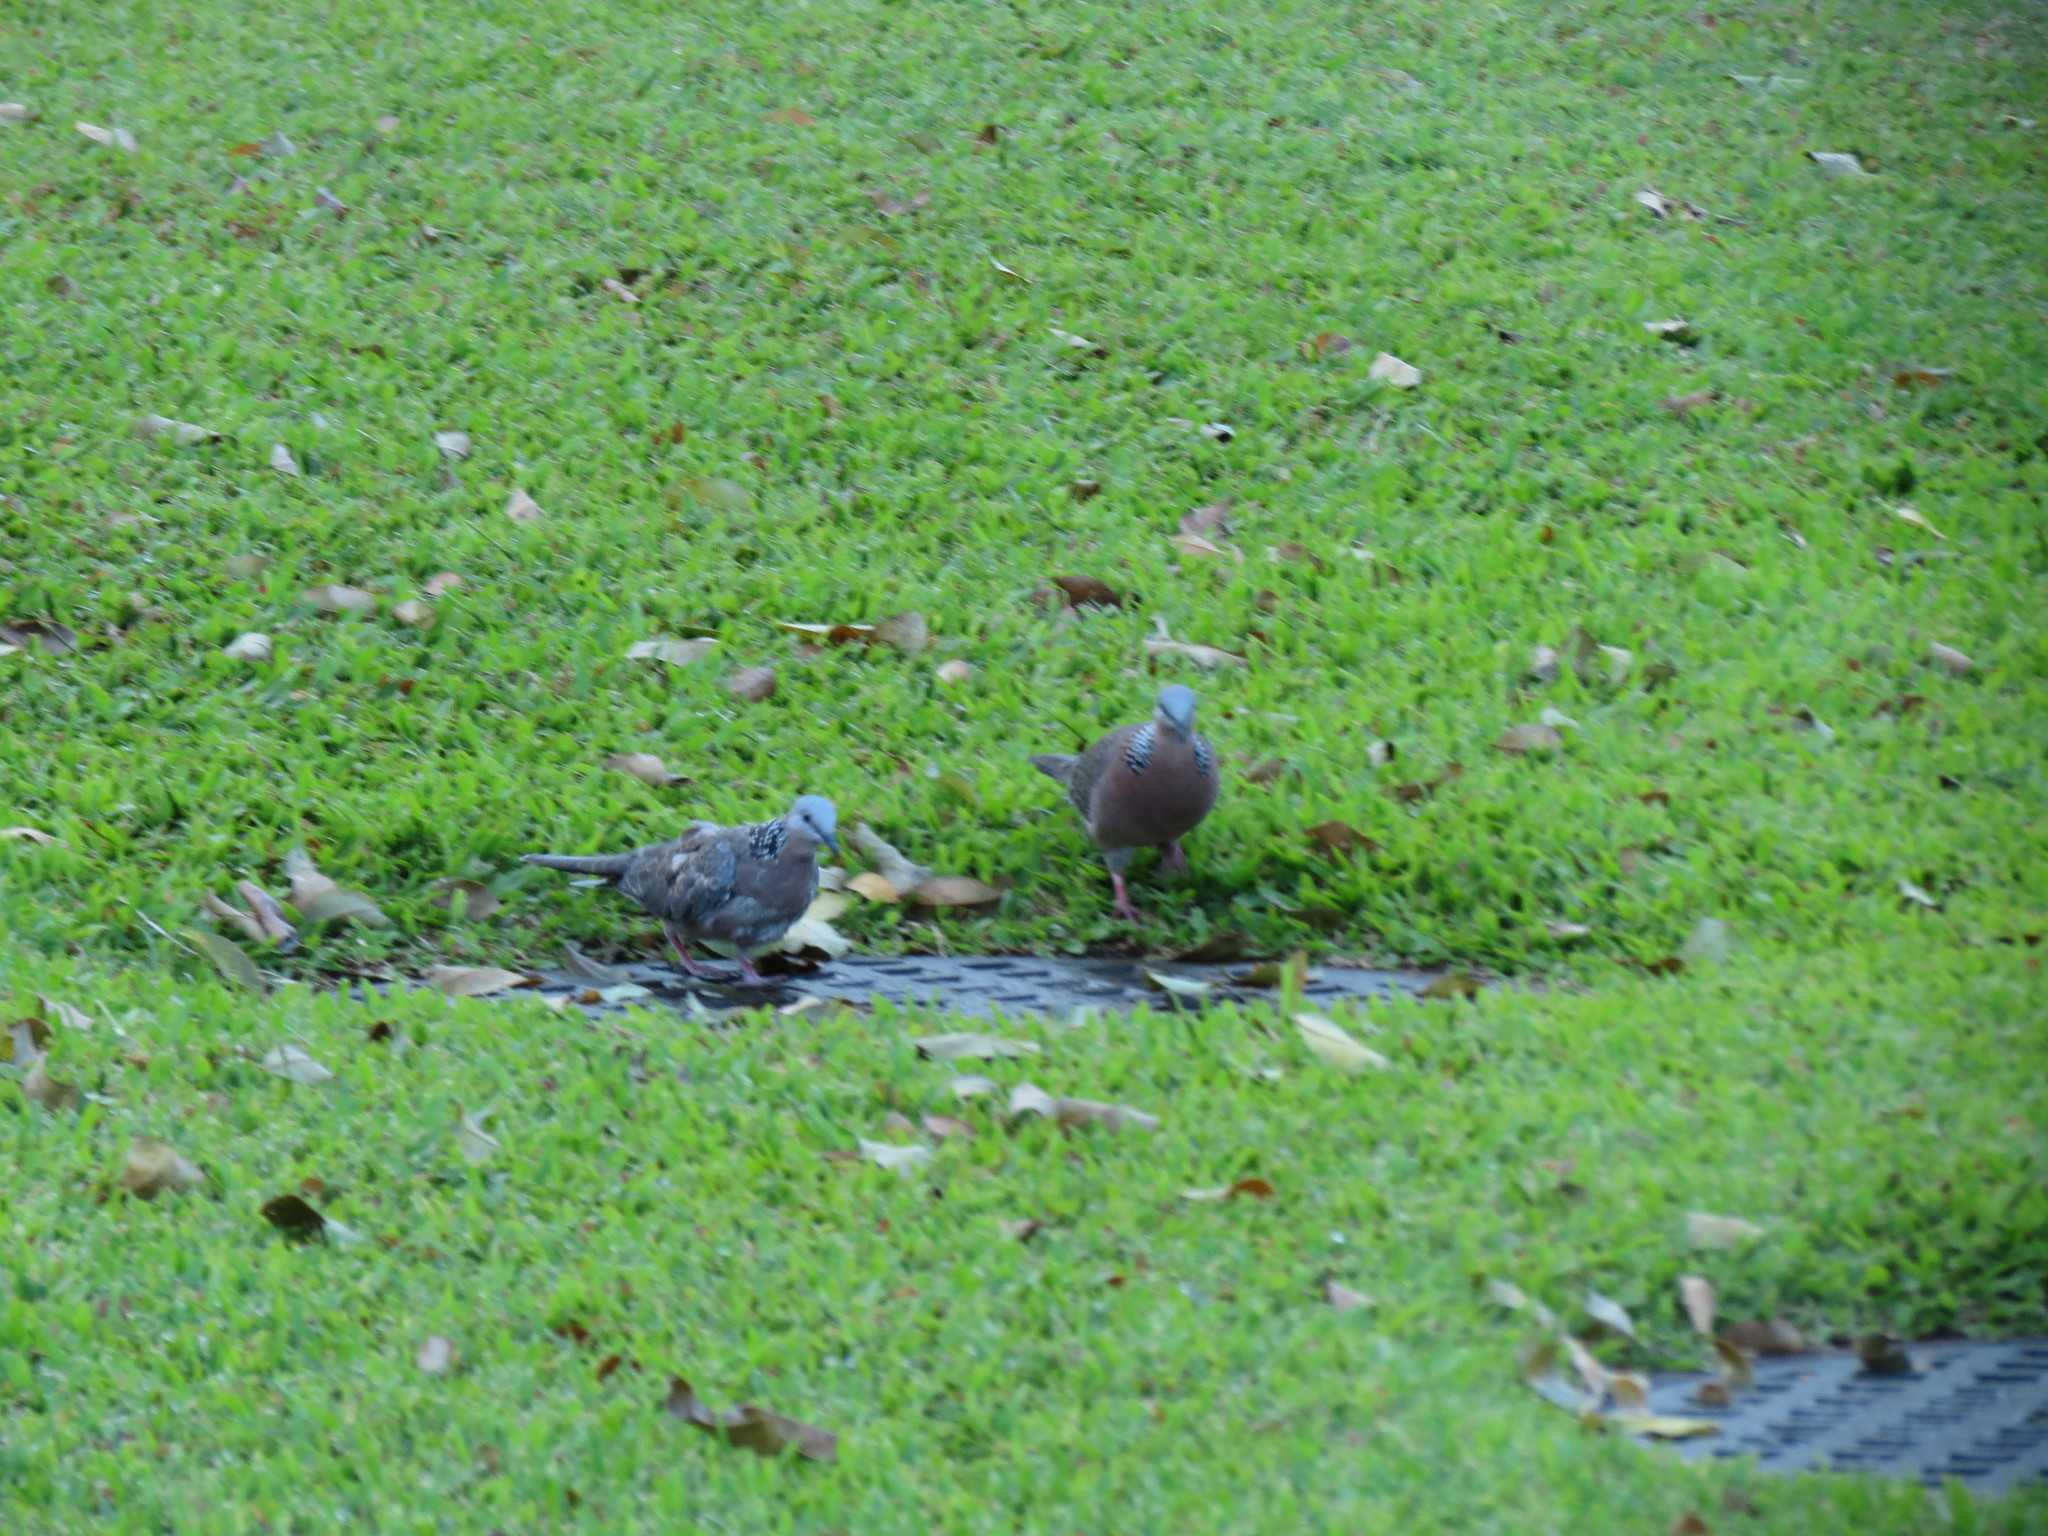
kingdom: Animalia
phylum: Chordata
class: Aves
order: Columbiformes
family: Columbidae
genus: Spilopelia
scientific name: Spilopelia chinensis
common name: Spotted dove
